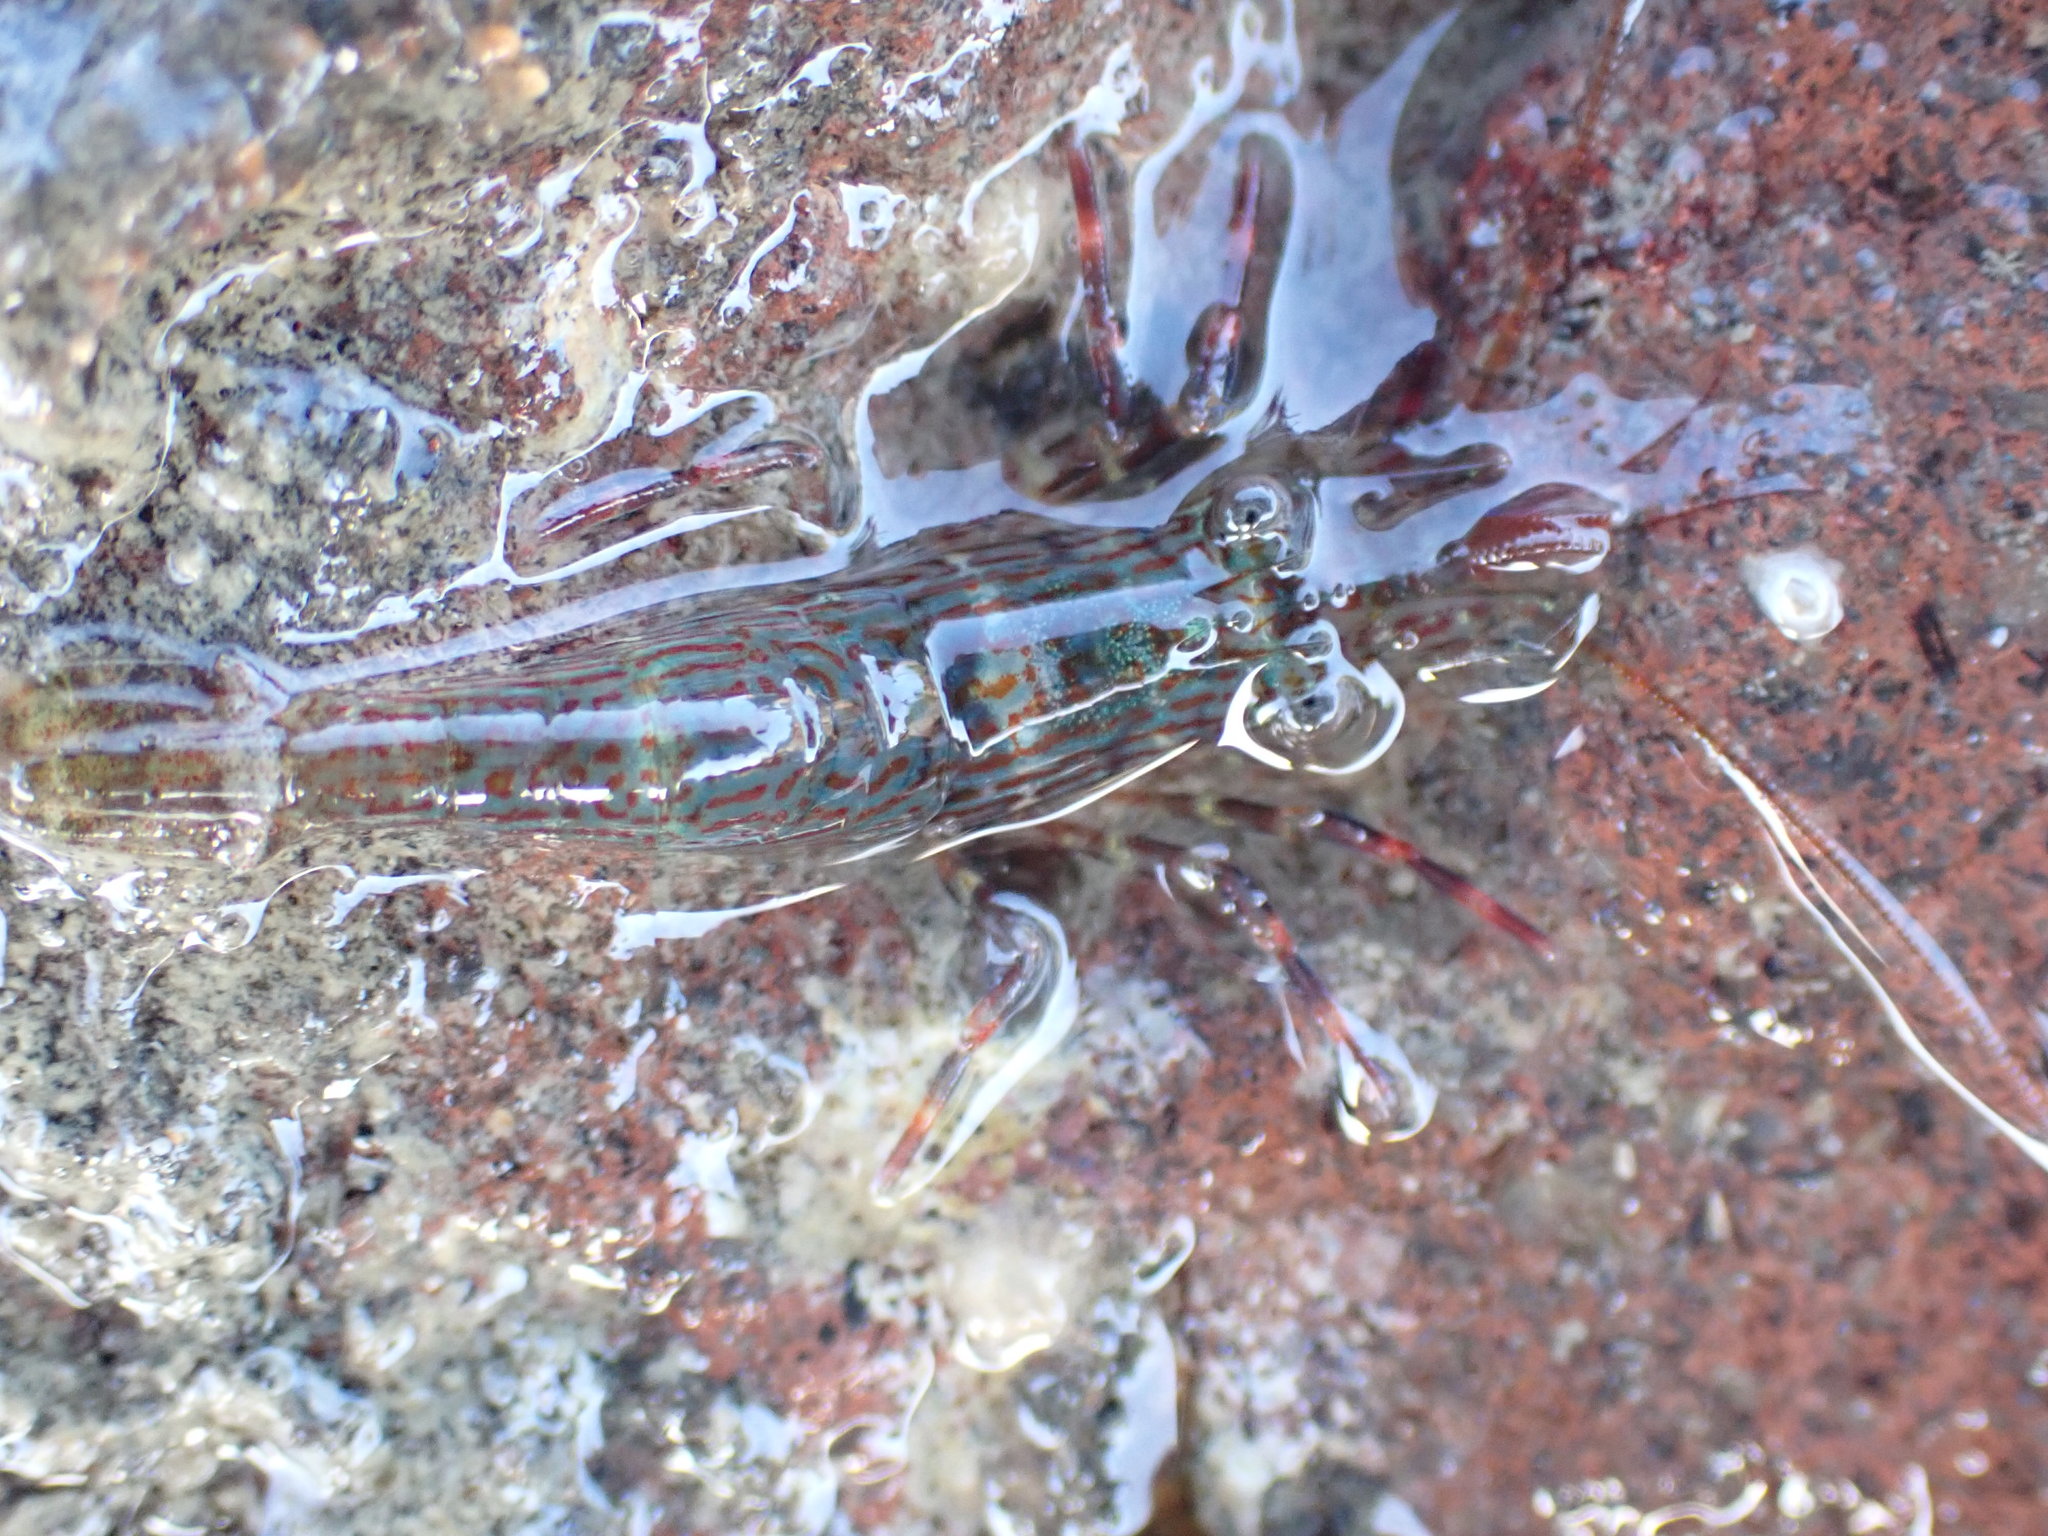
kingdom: Animalia
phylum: Arthropoda
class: Malacostraca
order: Decapoda
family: Hippolytidae
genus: Alope
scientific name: Alope spinifrons
